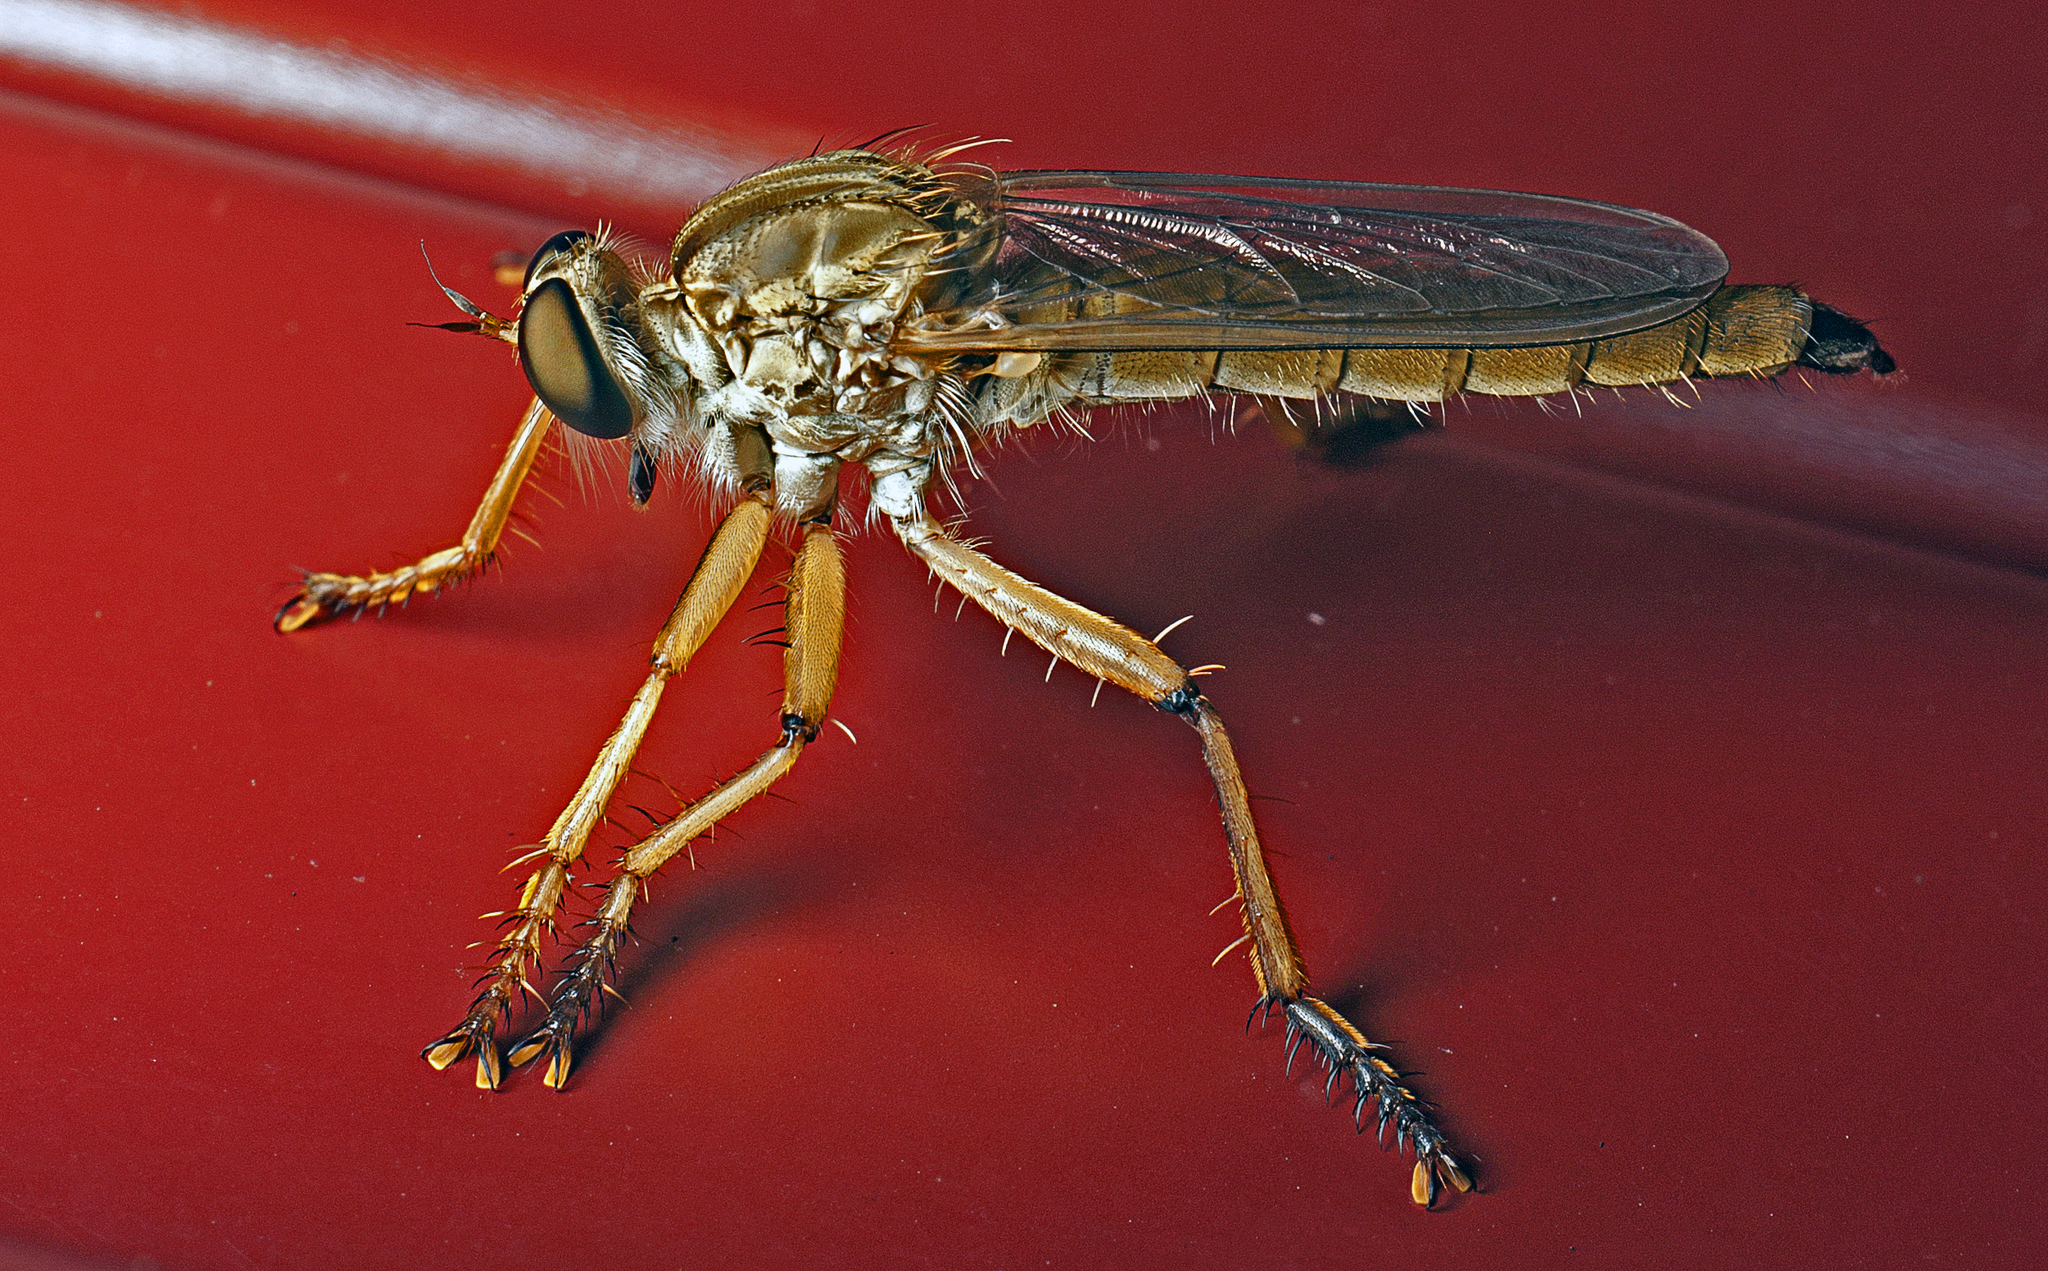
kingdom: Animalia
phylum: Arthropoda
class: Insecta
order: Diptera
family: Asilidae
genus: Zosteria
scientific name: Zosteria fulvipubescens
